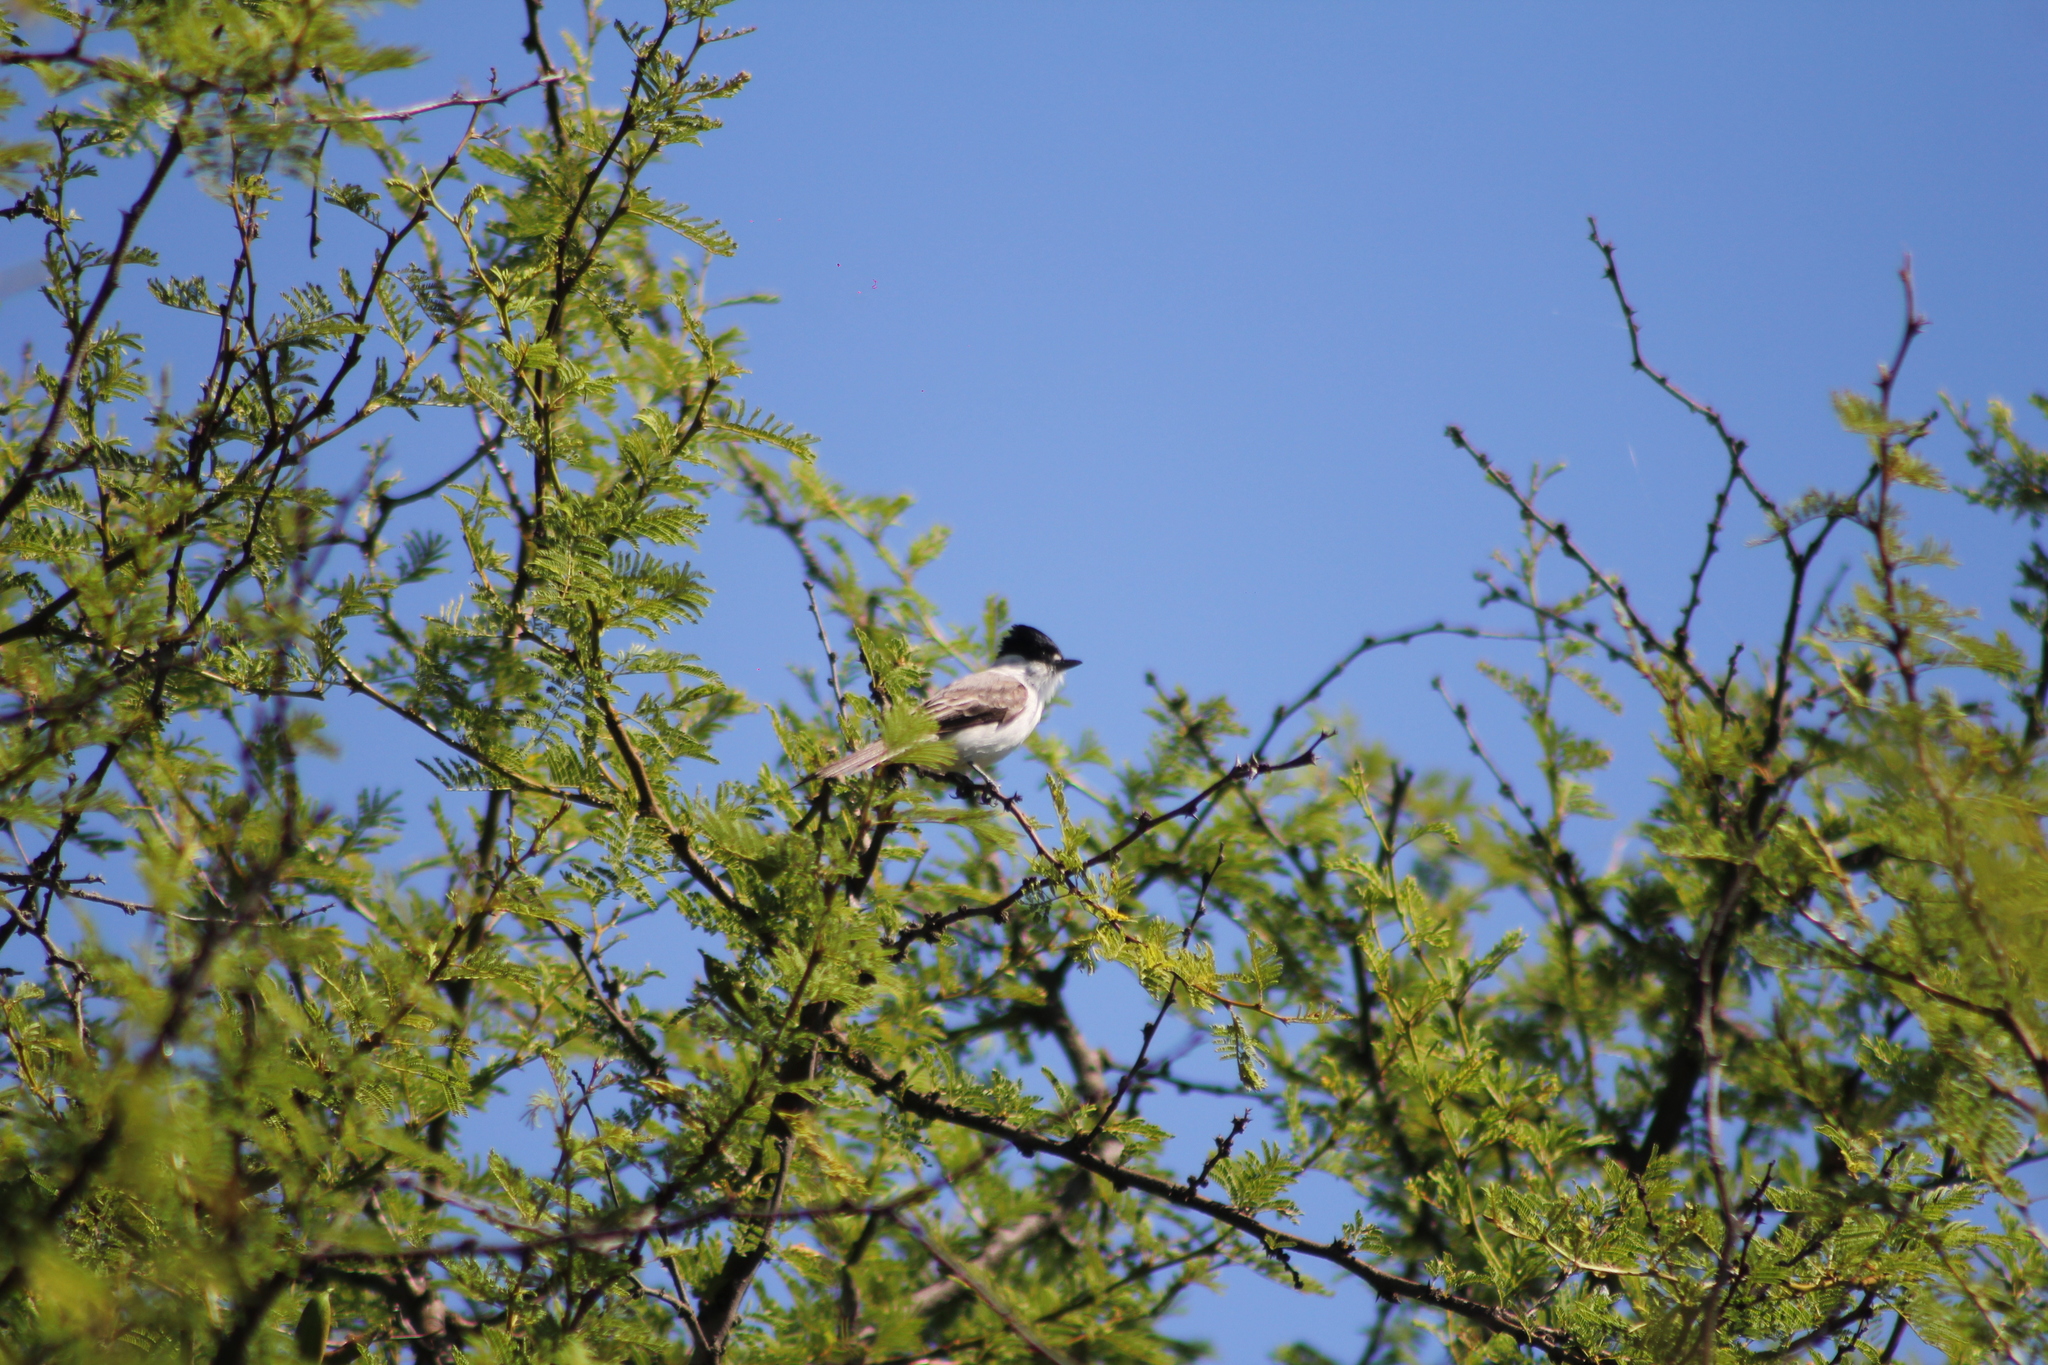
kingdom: Animalia
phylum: Chordata
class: Aves
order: Passeriformes
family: Cotingidae
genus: Xenopsaris
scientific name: Xenopsaris albinucha
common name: White-naped xenopsaris
